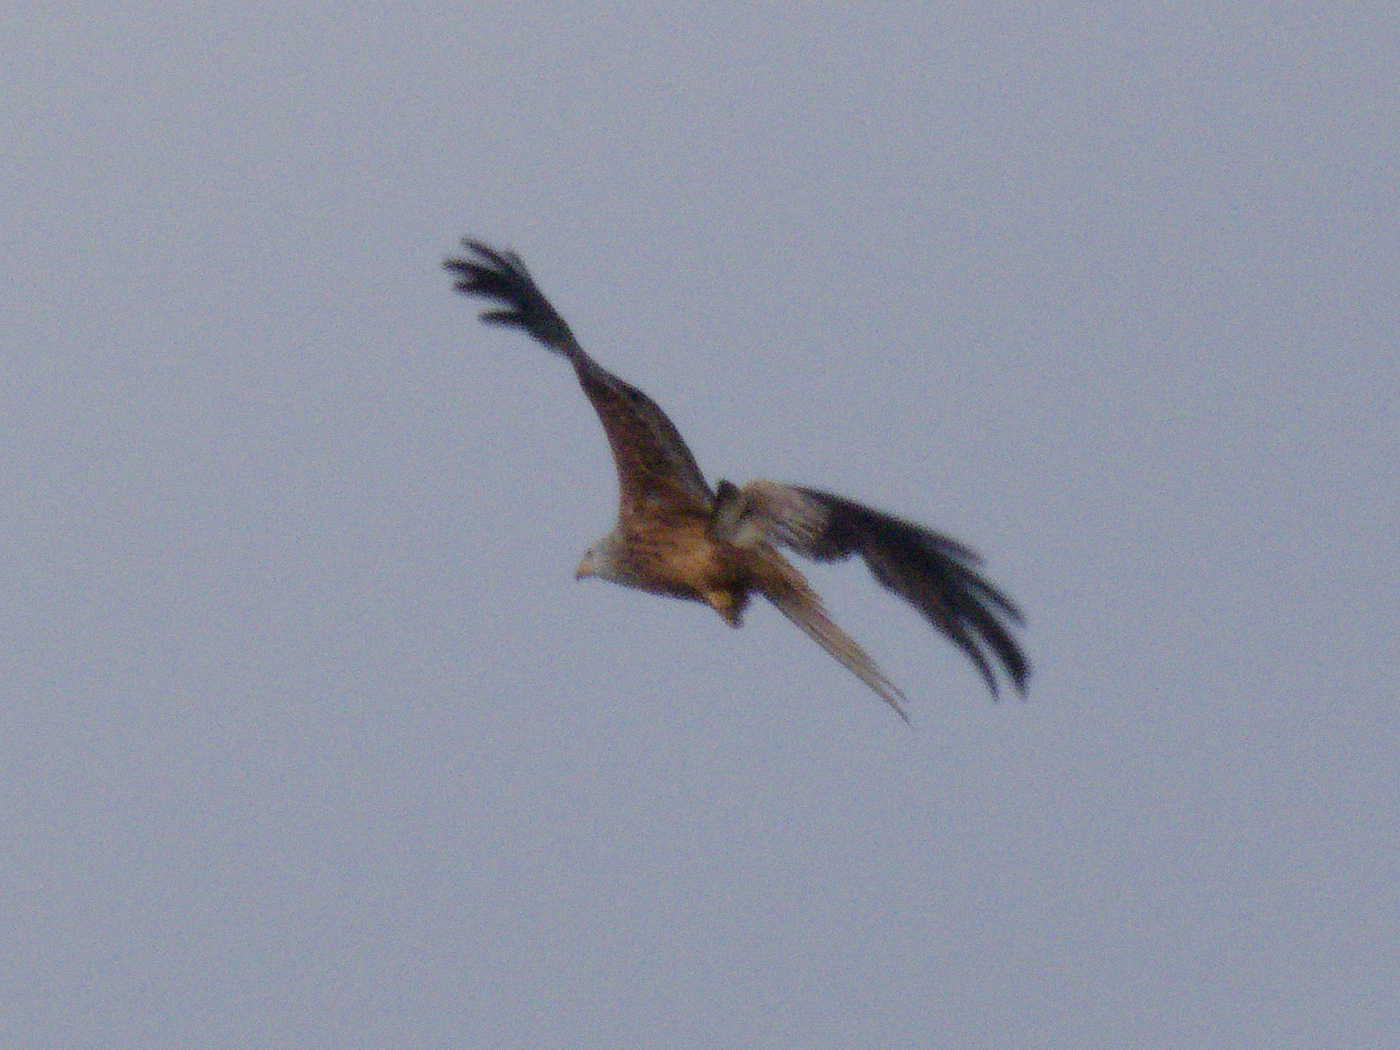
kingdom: Animalia
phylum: Chordata
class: Aves
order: Accipitriformes
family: Accipitridae
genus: Milvus
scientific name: Milvus milvus
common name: Red kite
